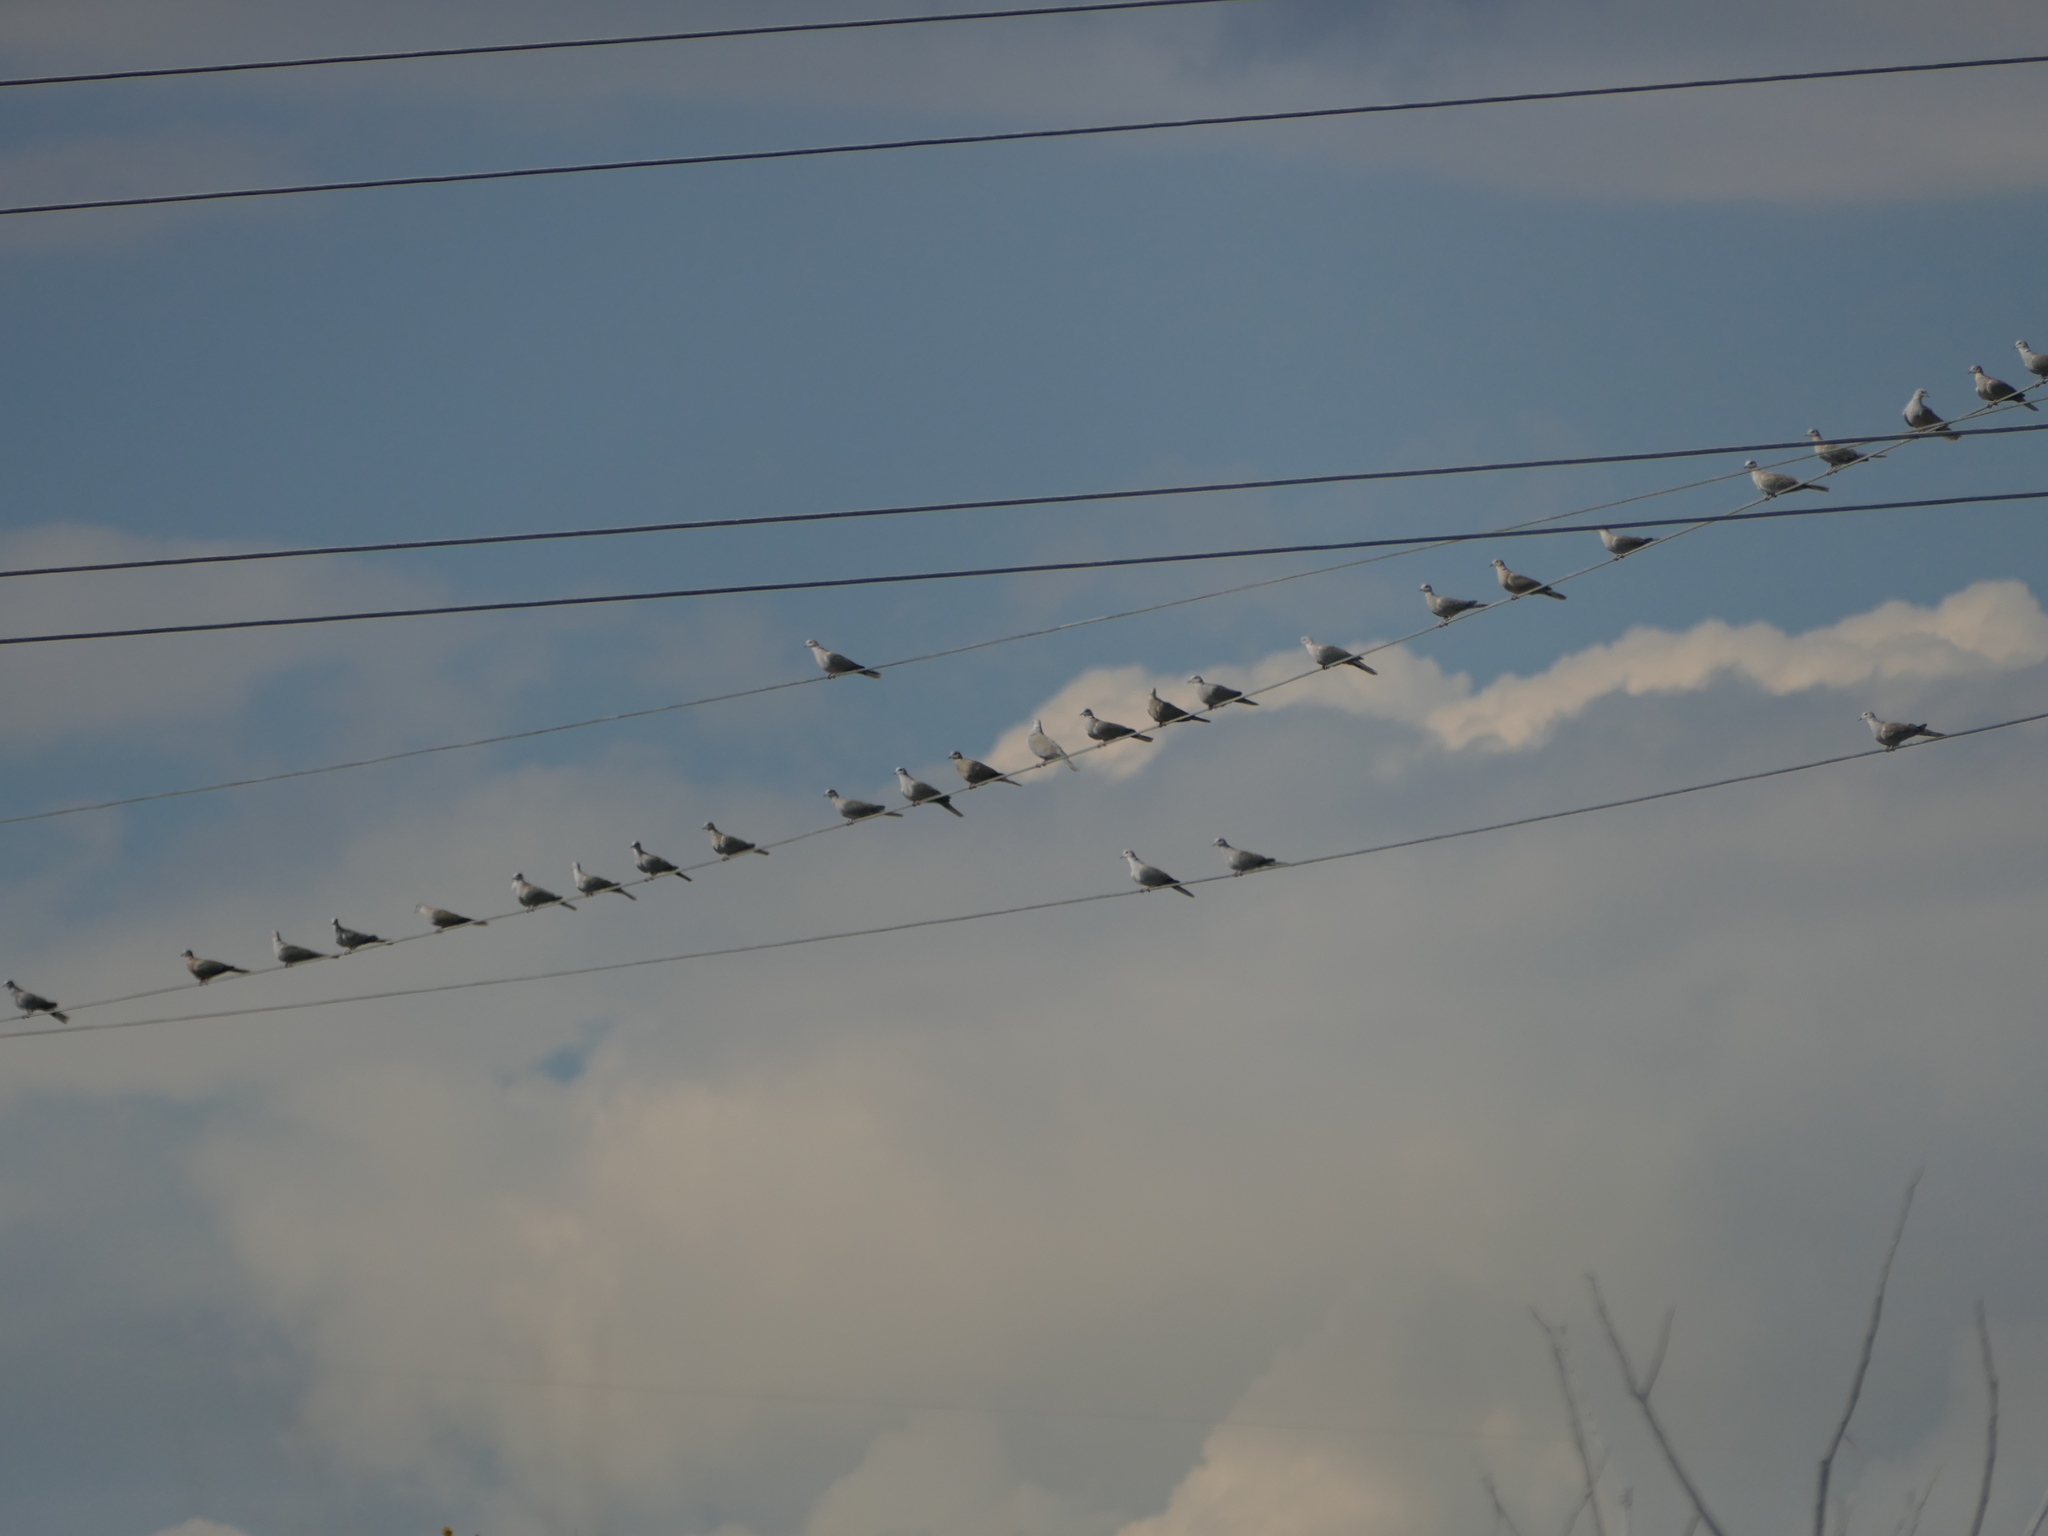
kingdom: Animalia
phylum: Chordata
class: Aves
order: Columbiformes
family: Columbidae
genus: Streptopelia
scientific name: Streptopelia decaocto
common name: Eurasian collared dove
